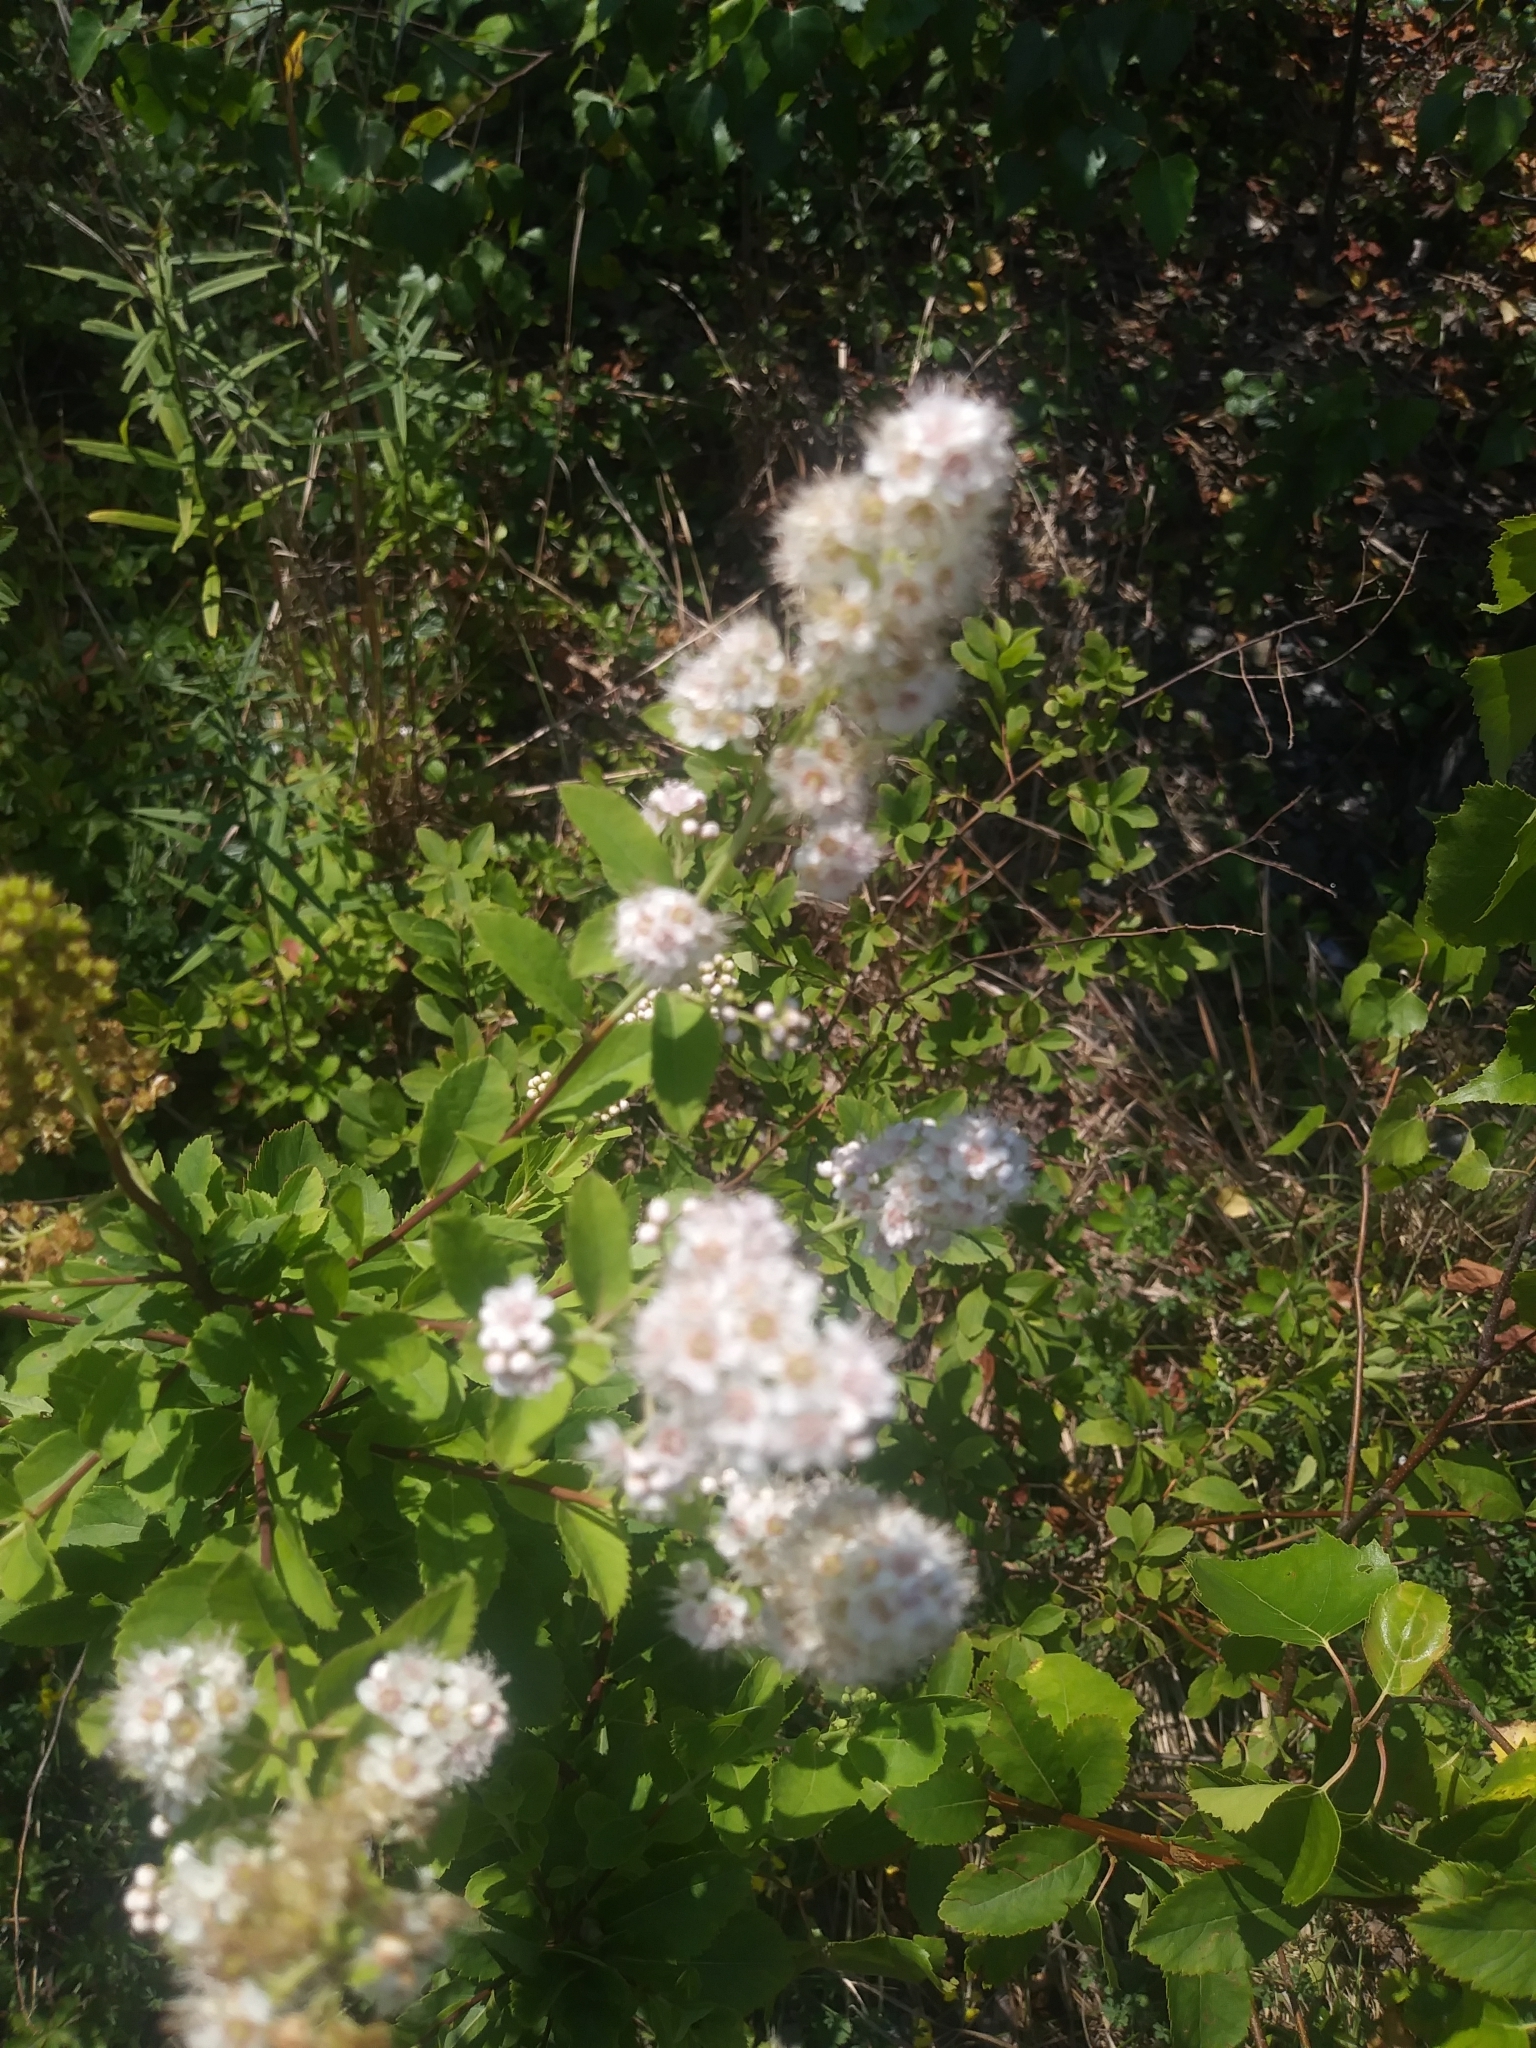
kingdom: Plantae
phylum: Tracheophyta
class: Magnoliopsida
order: Rosales
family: Rosaceae
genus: Spiraea
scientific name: Spiraea alba
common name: Pale bridewort
